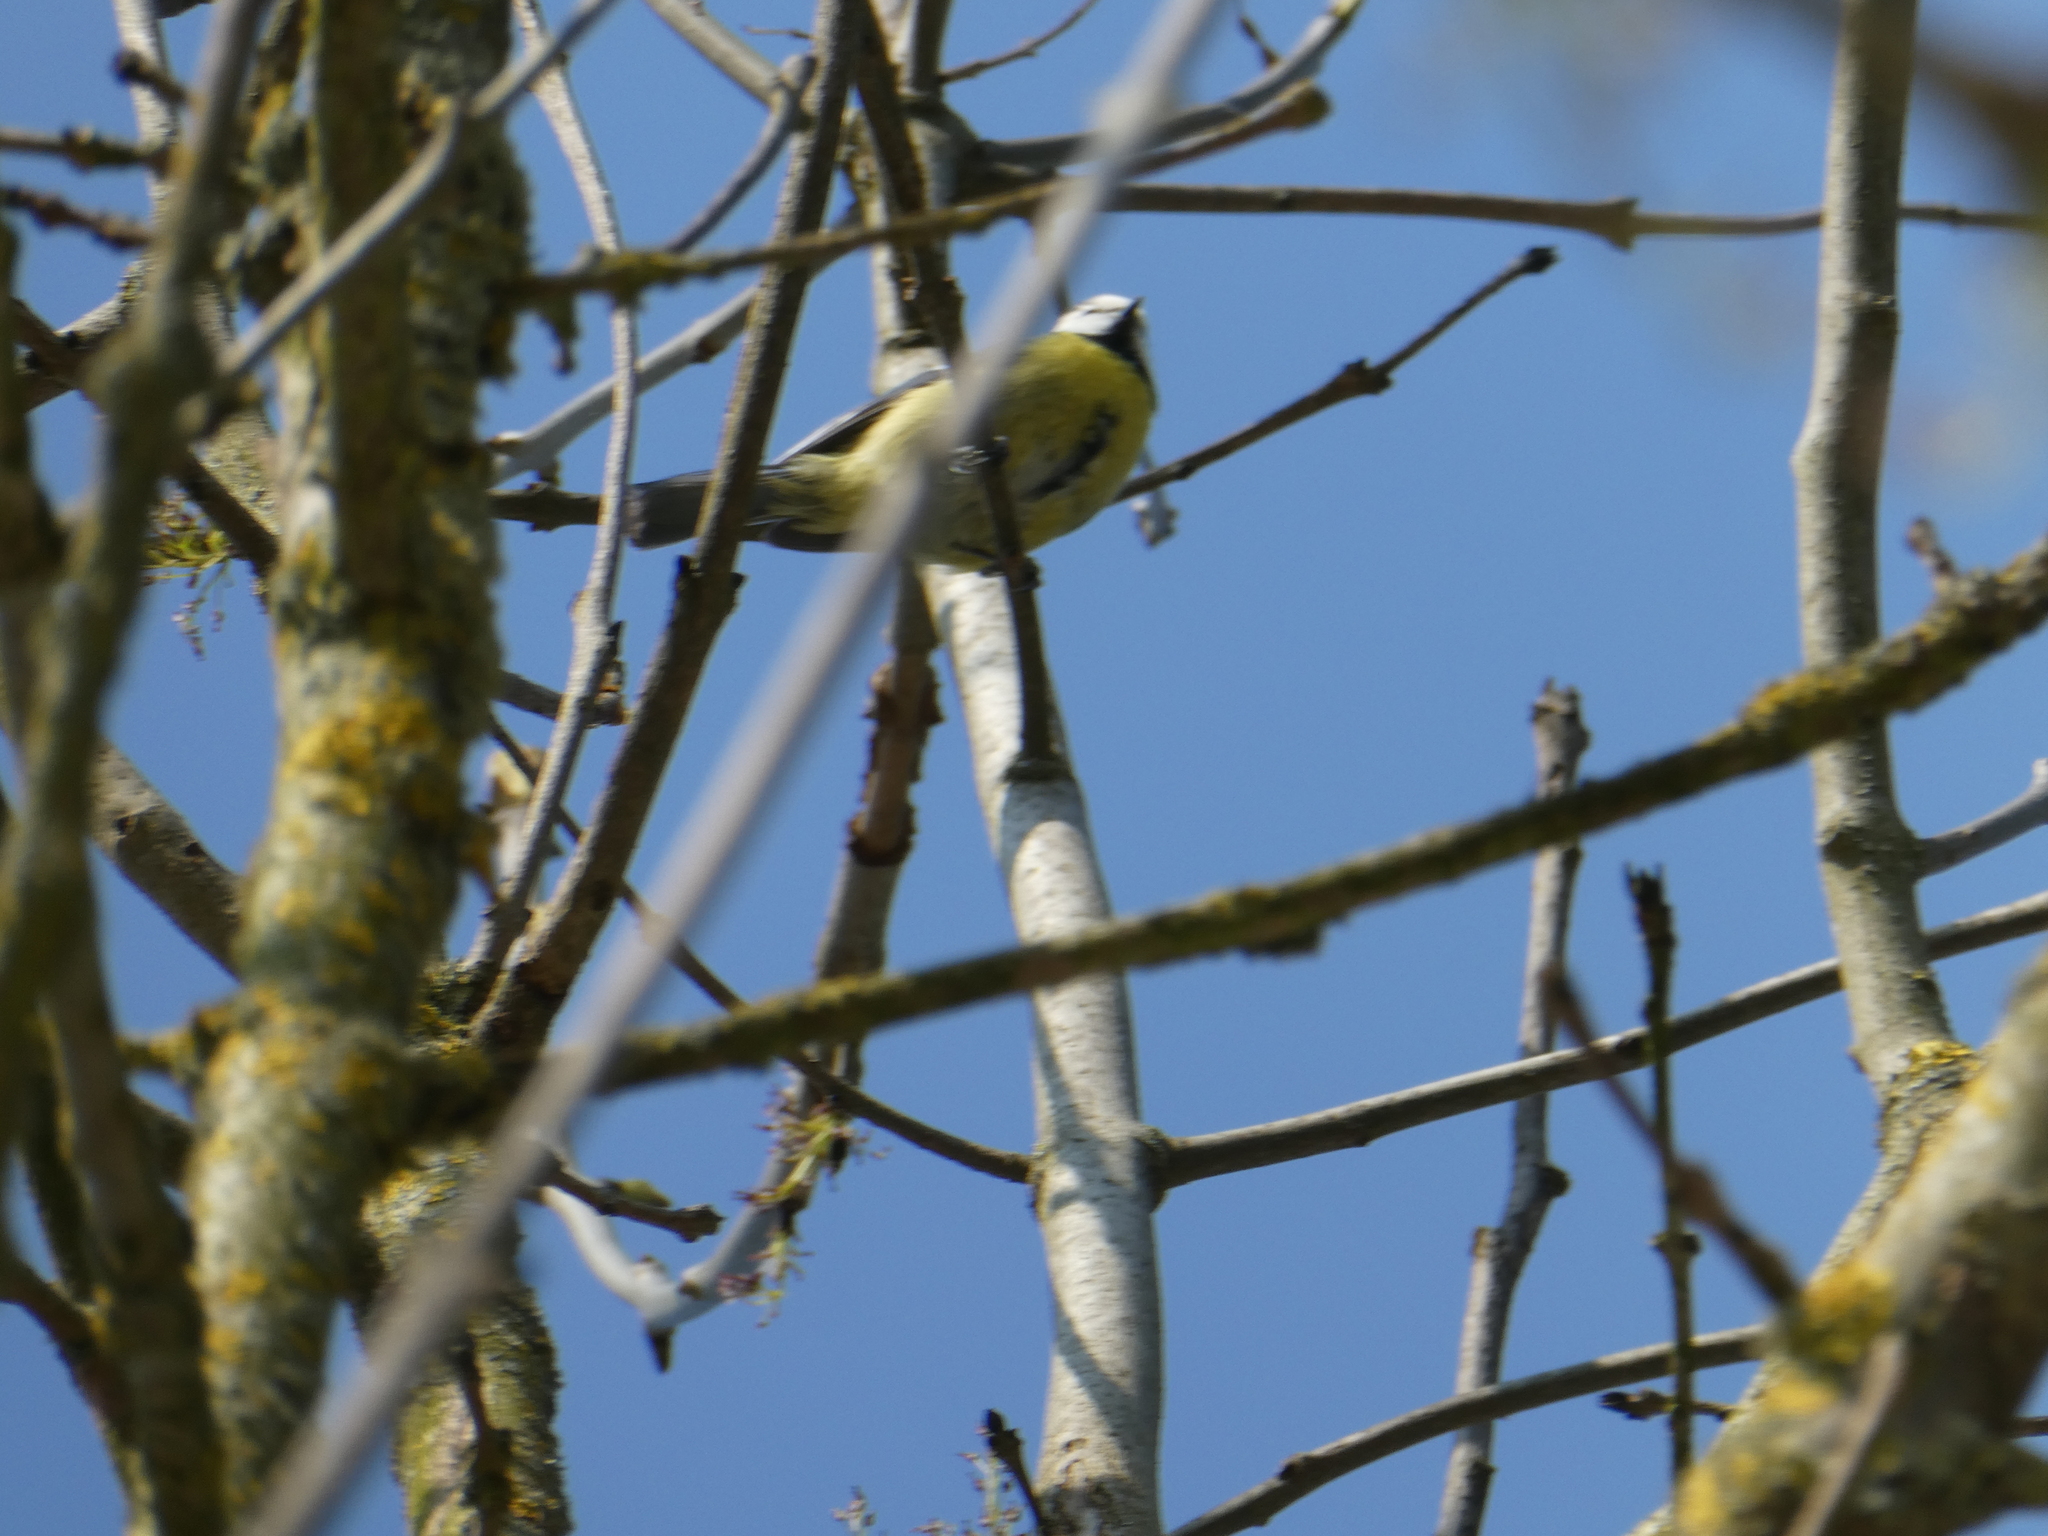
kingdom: Animalia
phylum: Chordata
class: Aves
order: Passeriformes
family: Paridae
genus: Cyanistes
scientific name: Cyanistes caeruleus
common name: Eurasian blue tit
